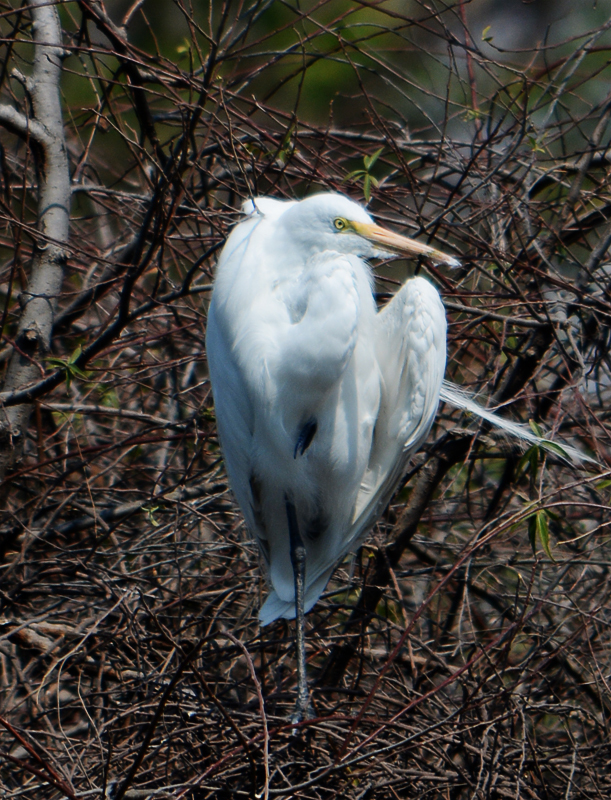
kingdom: Animalia
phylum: Chordata
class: Aves
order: Pelecaniformes
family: Ardeidae
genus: Ardea
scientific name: Ardea alba
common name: Great egret
